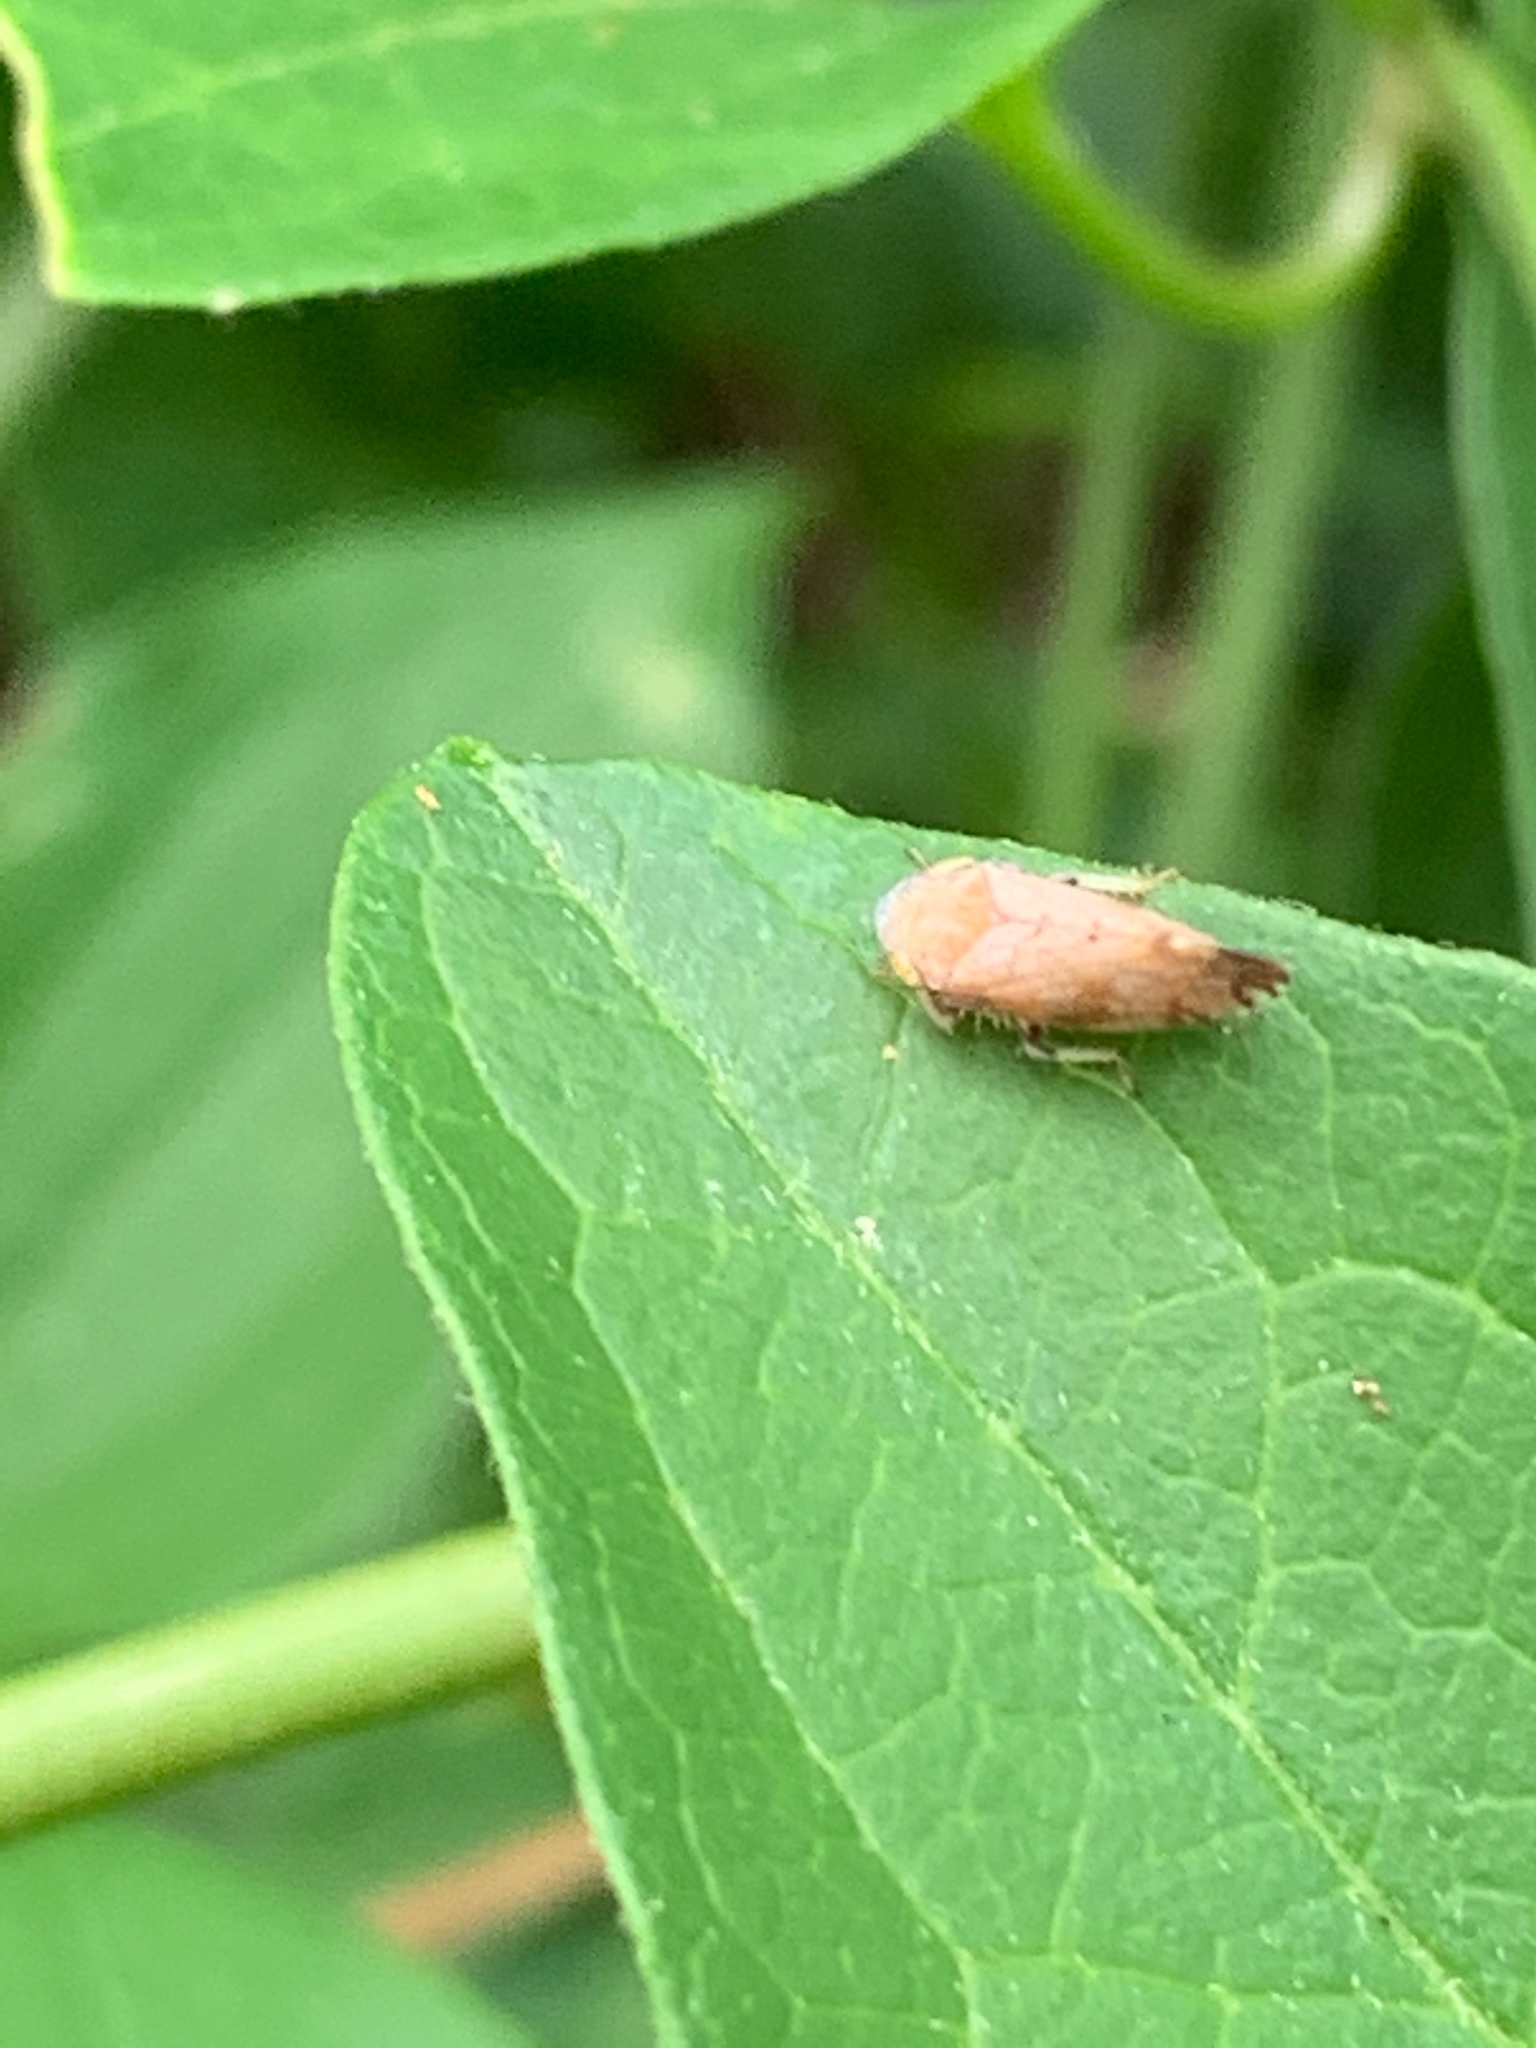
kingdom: Animalia
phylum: Arthropoda
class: Insecta
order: Hemiptera
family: Cicadellidae
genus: Fieberiella
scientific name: Fieberiella florii
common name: Flor’s leafhopper
